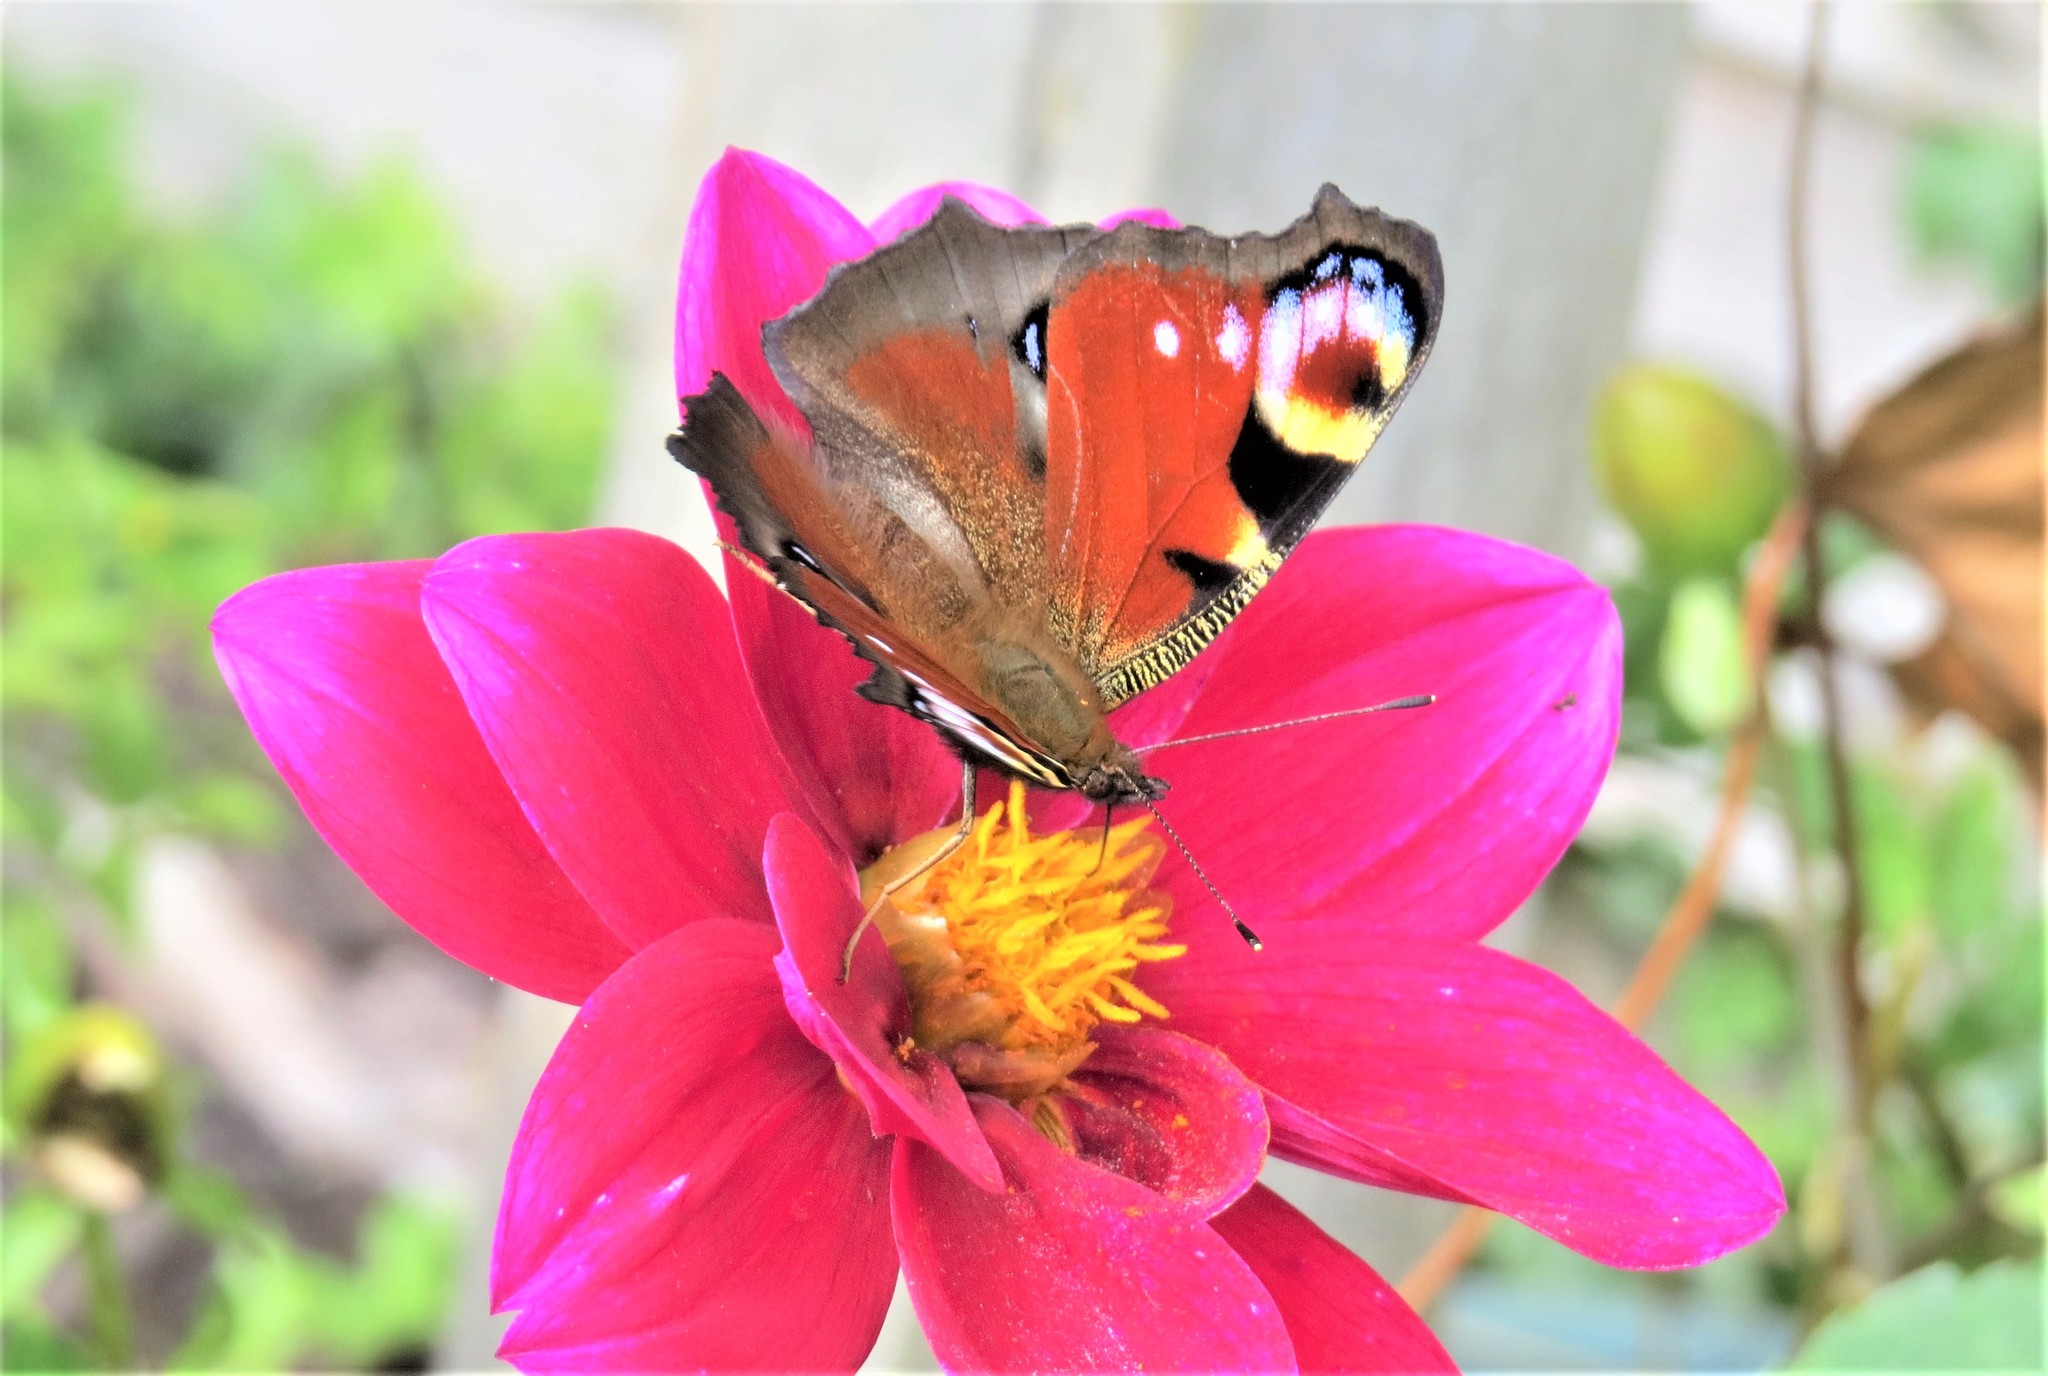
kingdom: Animalia
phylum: Arthropoda
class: Insecta
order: Lepidoptera
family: Nymphalidae
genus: Aglais
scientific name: Aglais io
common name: Peacock
